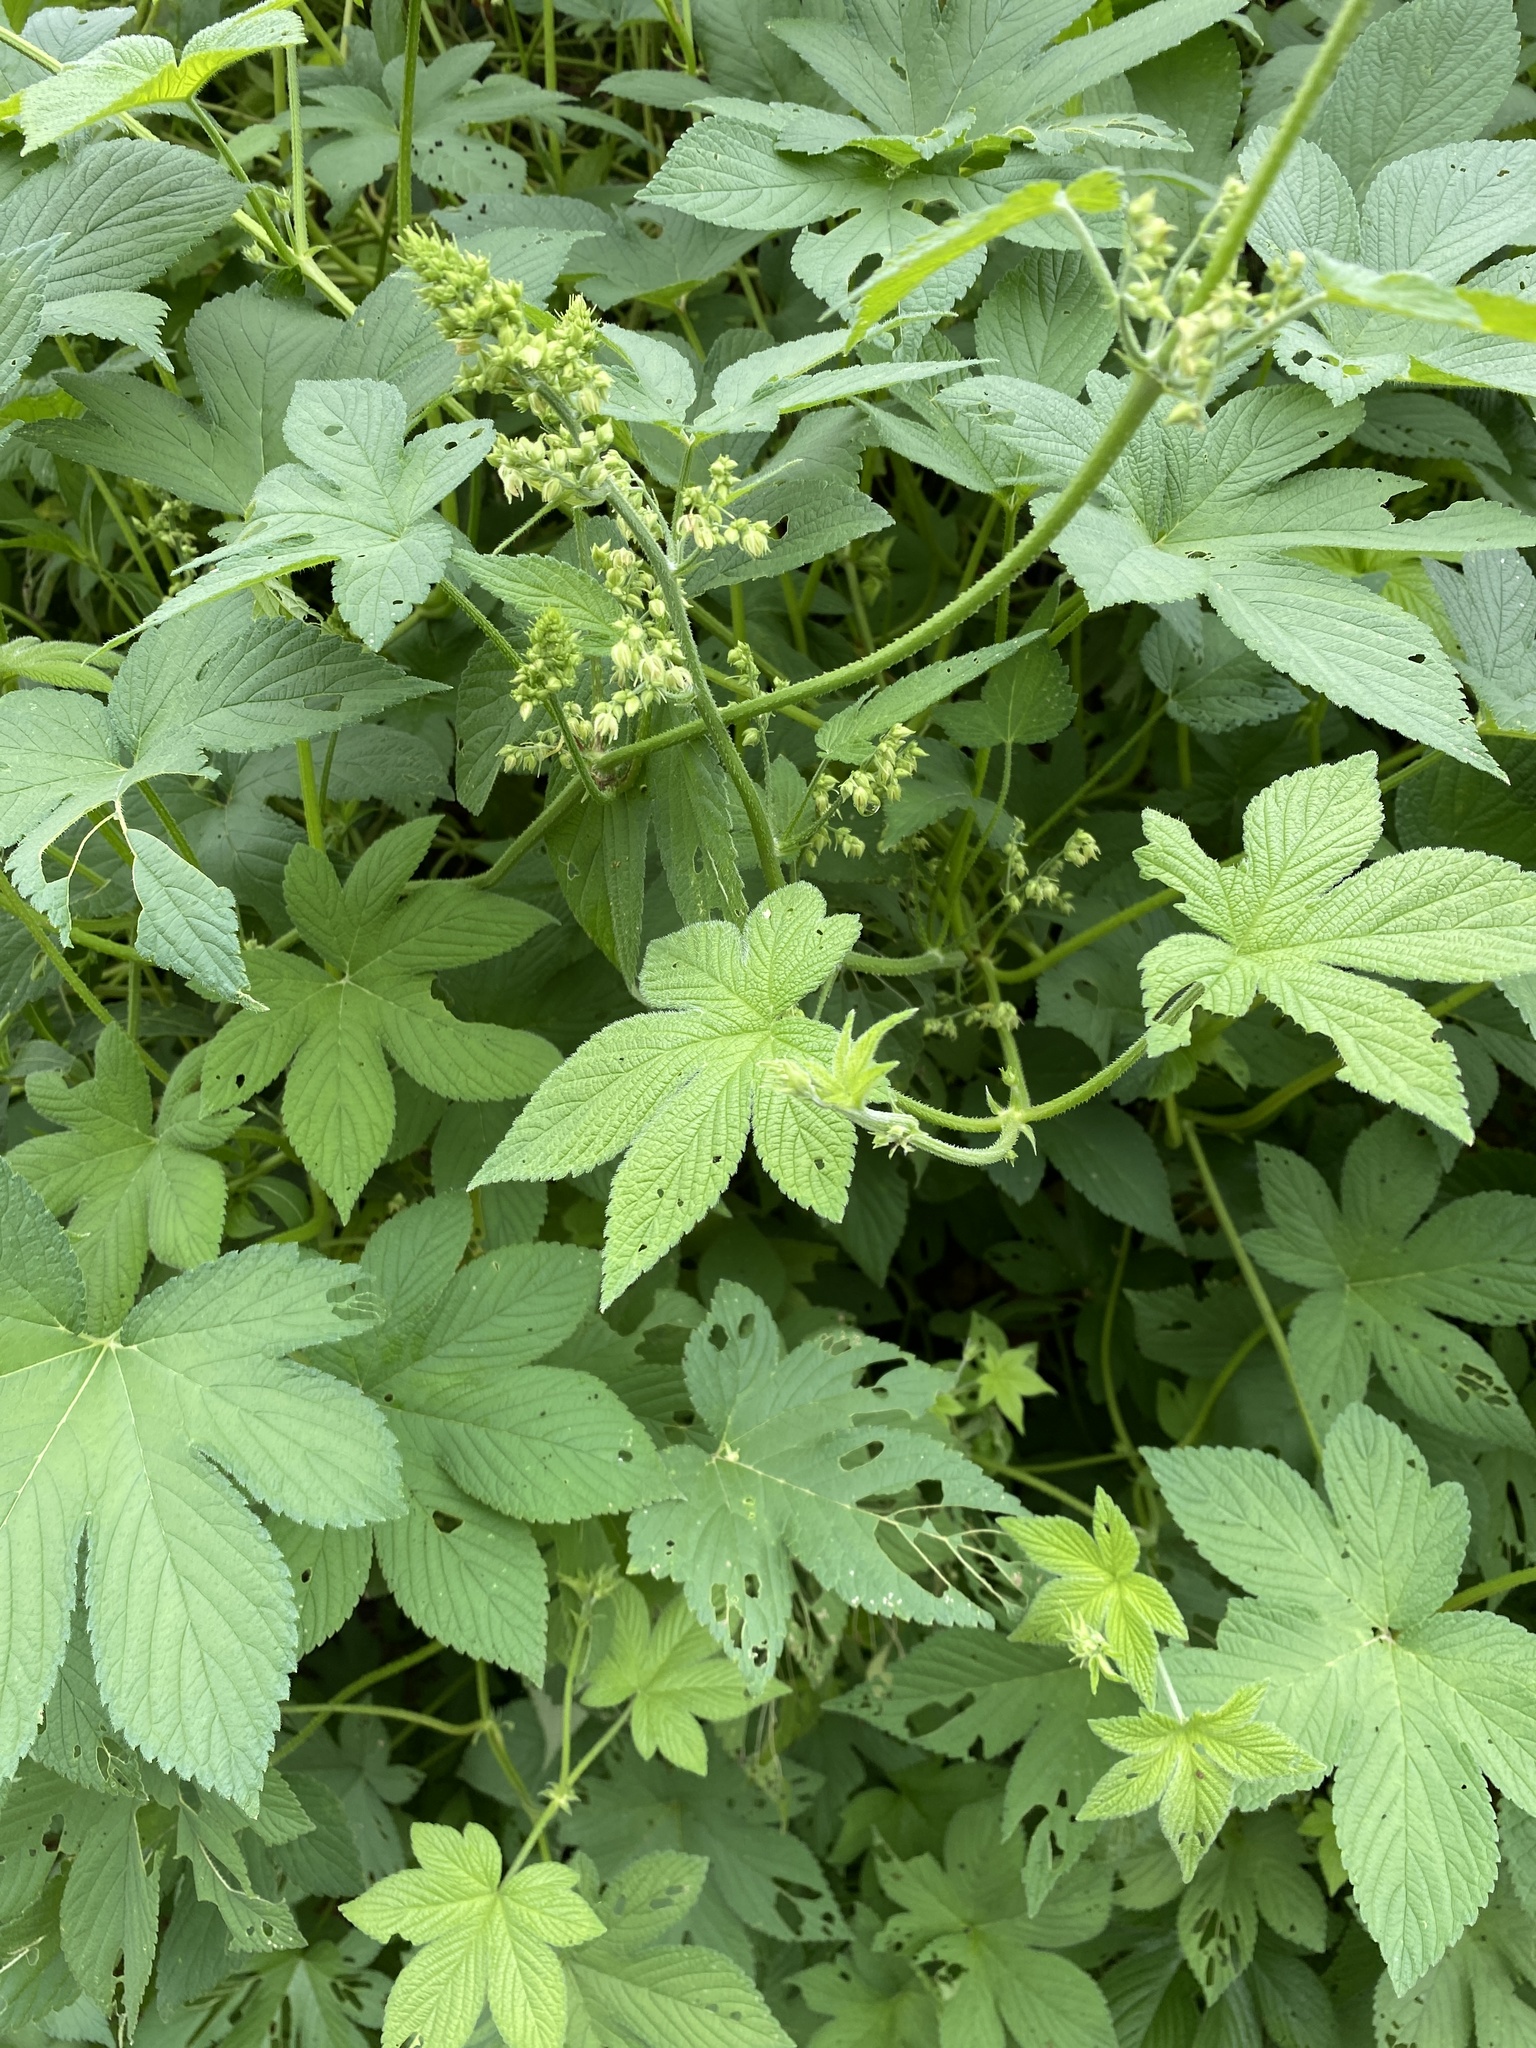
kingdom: Plantae
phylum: Tracheophyta
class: Magnoliopsida
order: Rosales
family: Cannabaceae
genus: Humulus
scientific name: Humulus scandens
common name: Japanese hop
